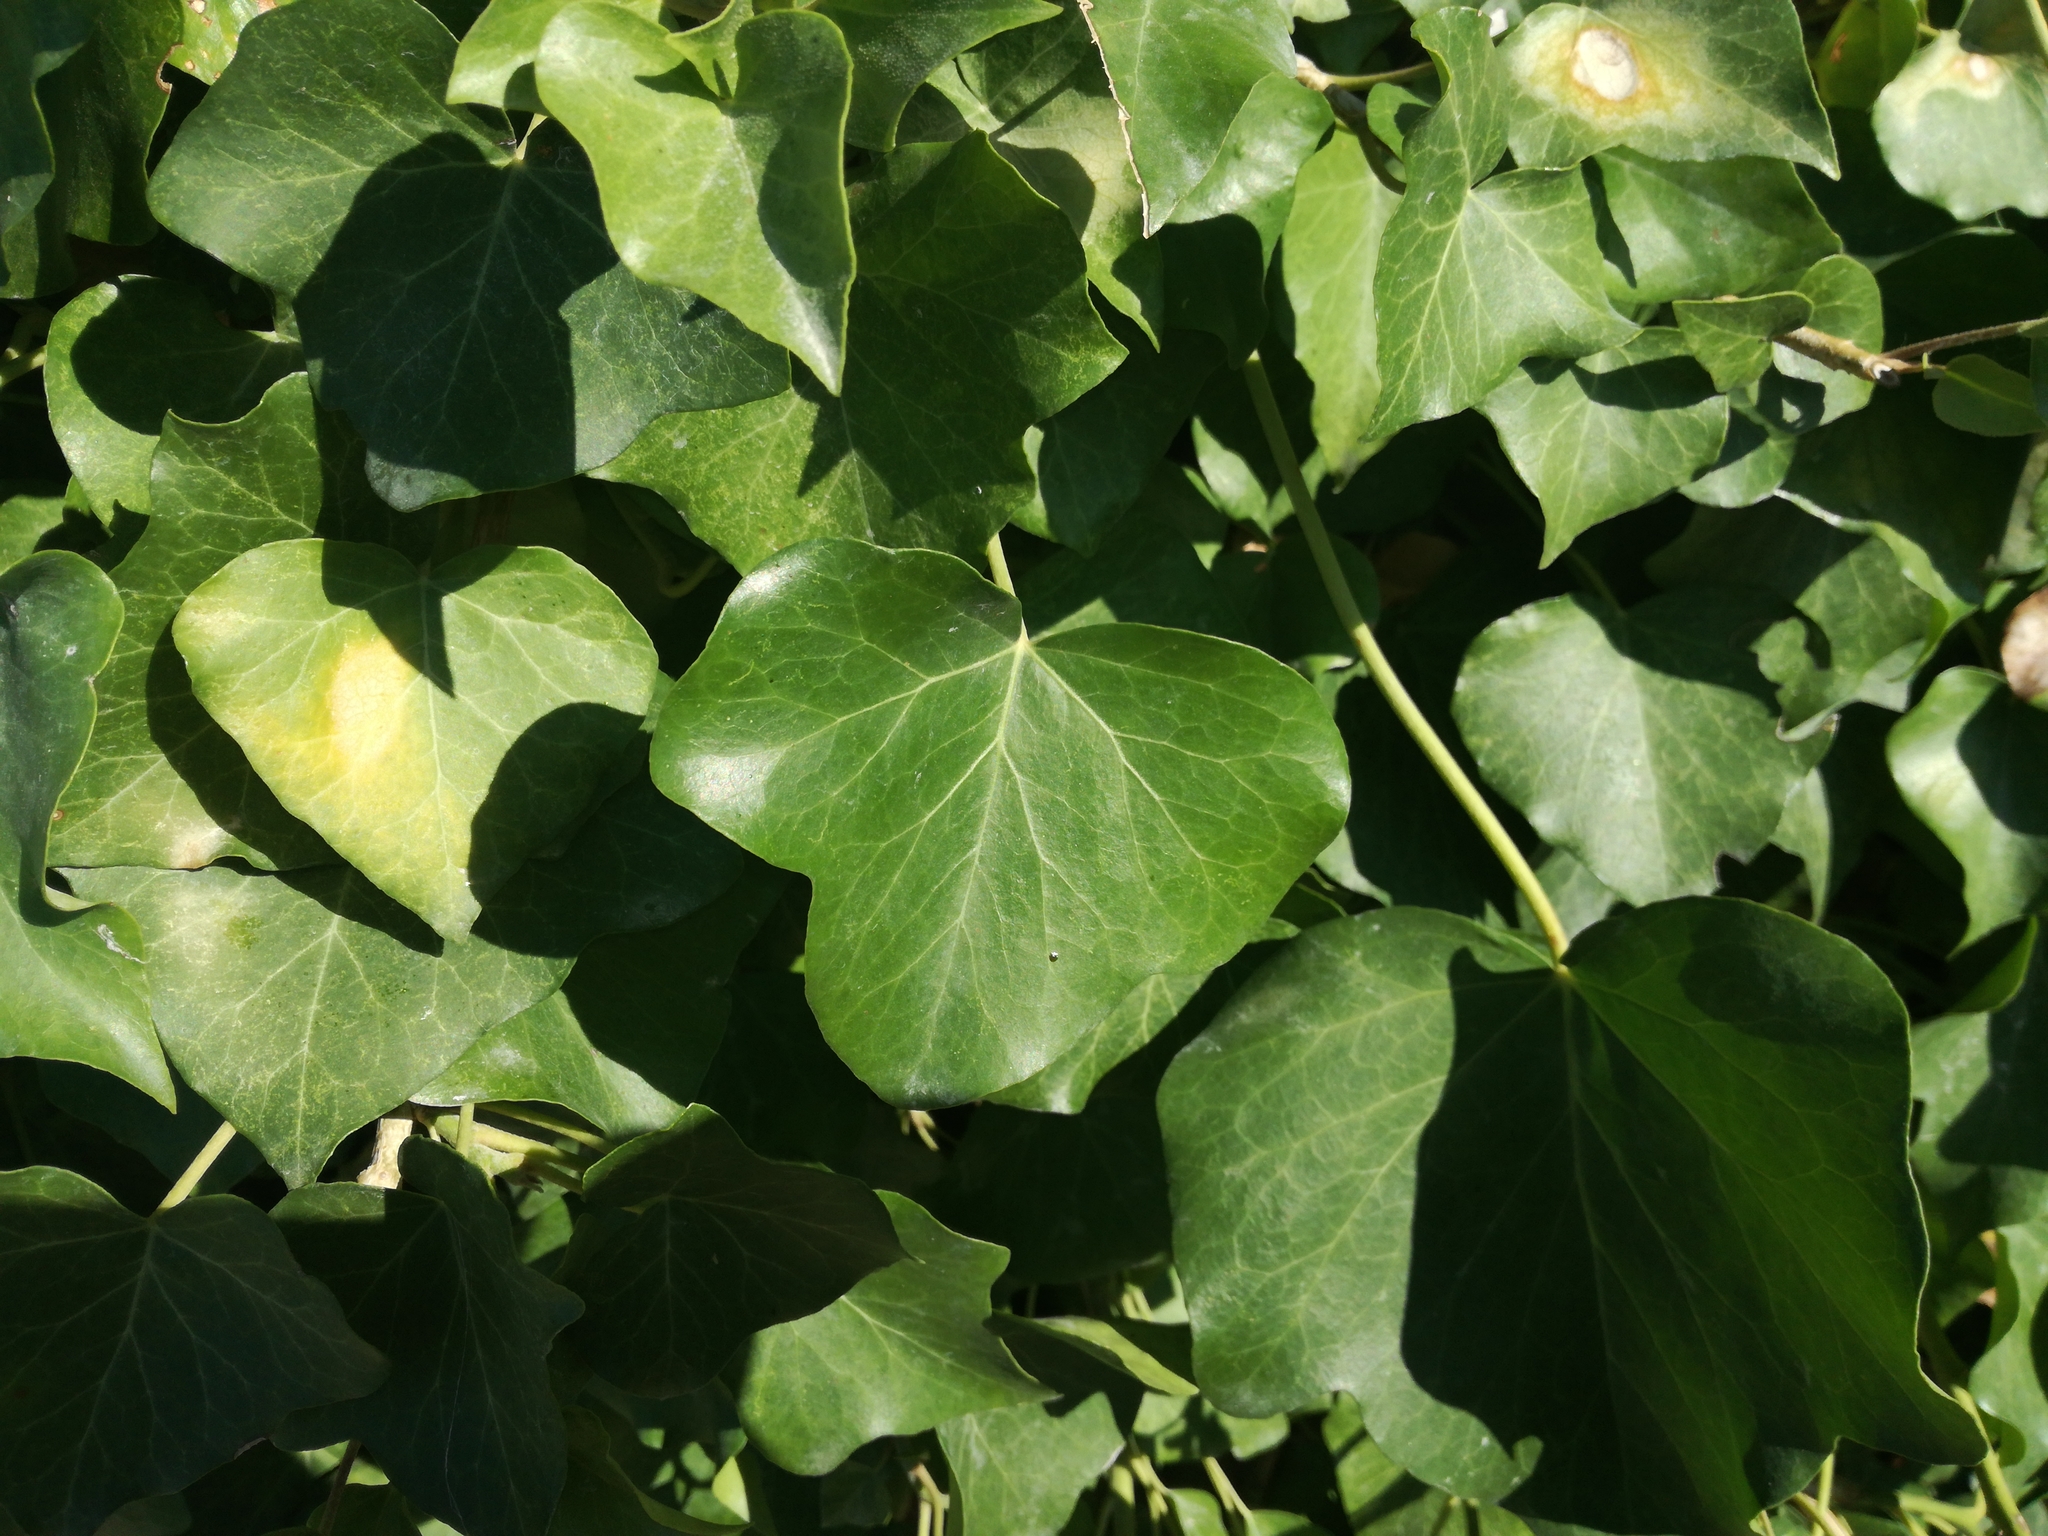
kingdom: Plantae
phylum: Tracheophyta
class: Magnoliopsida
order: Apiales
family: Araliaceae
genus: Hedera
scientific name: Hedera helix
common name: Ivy
